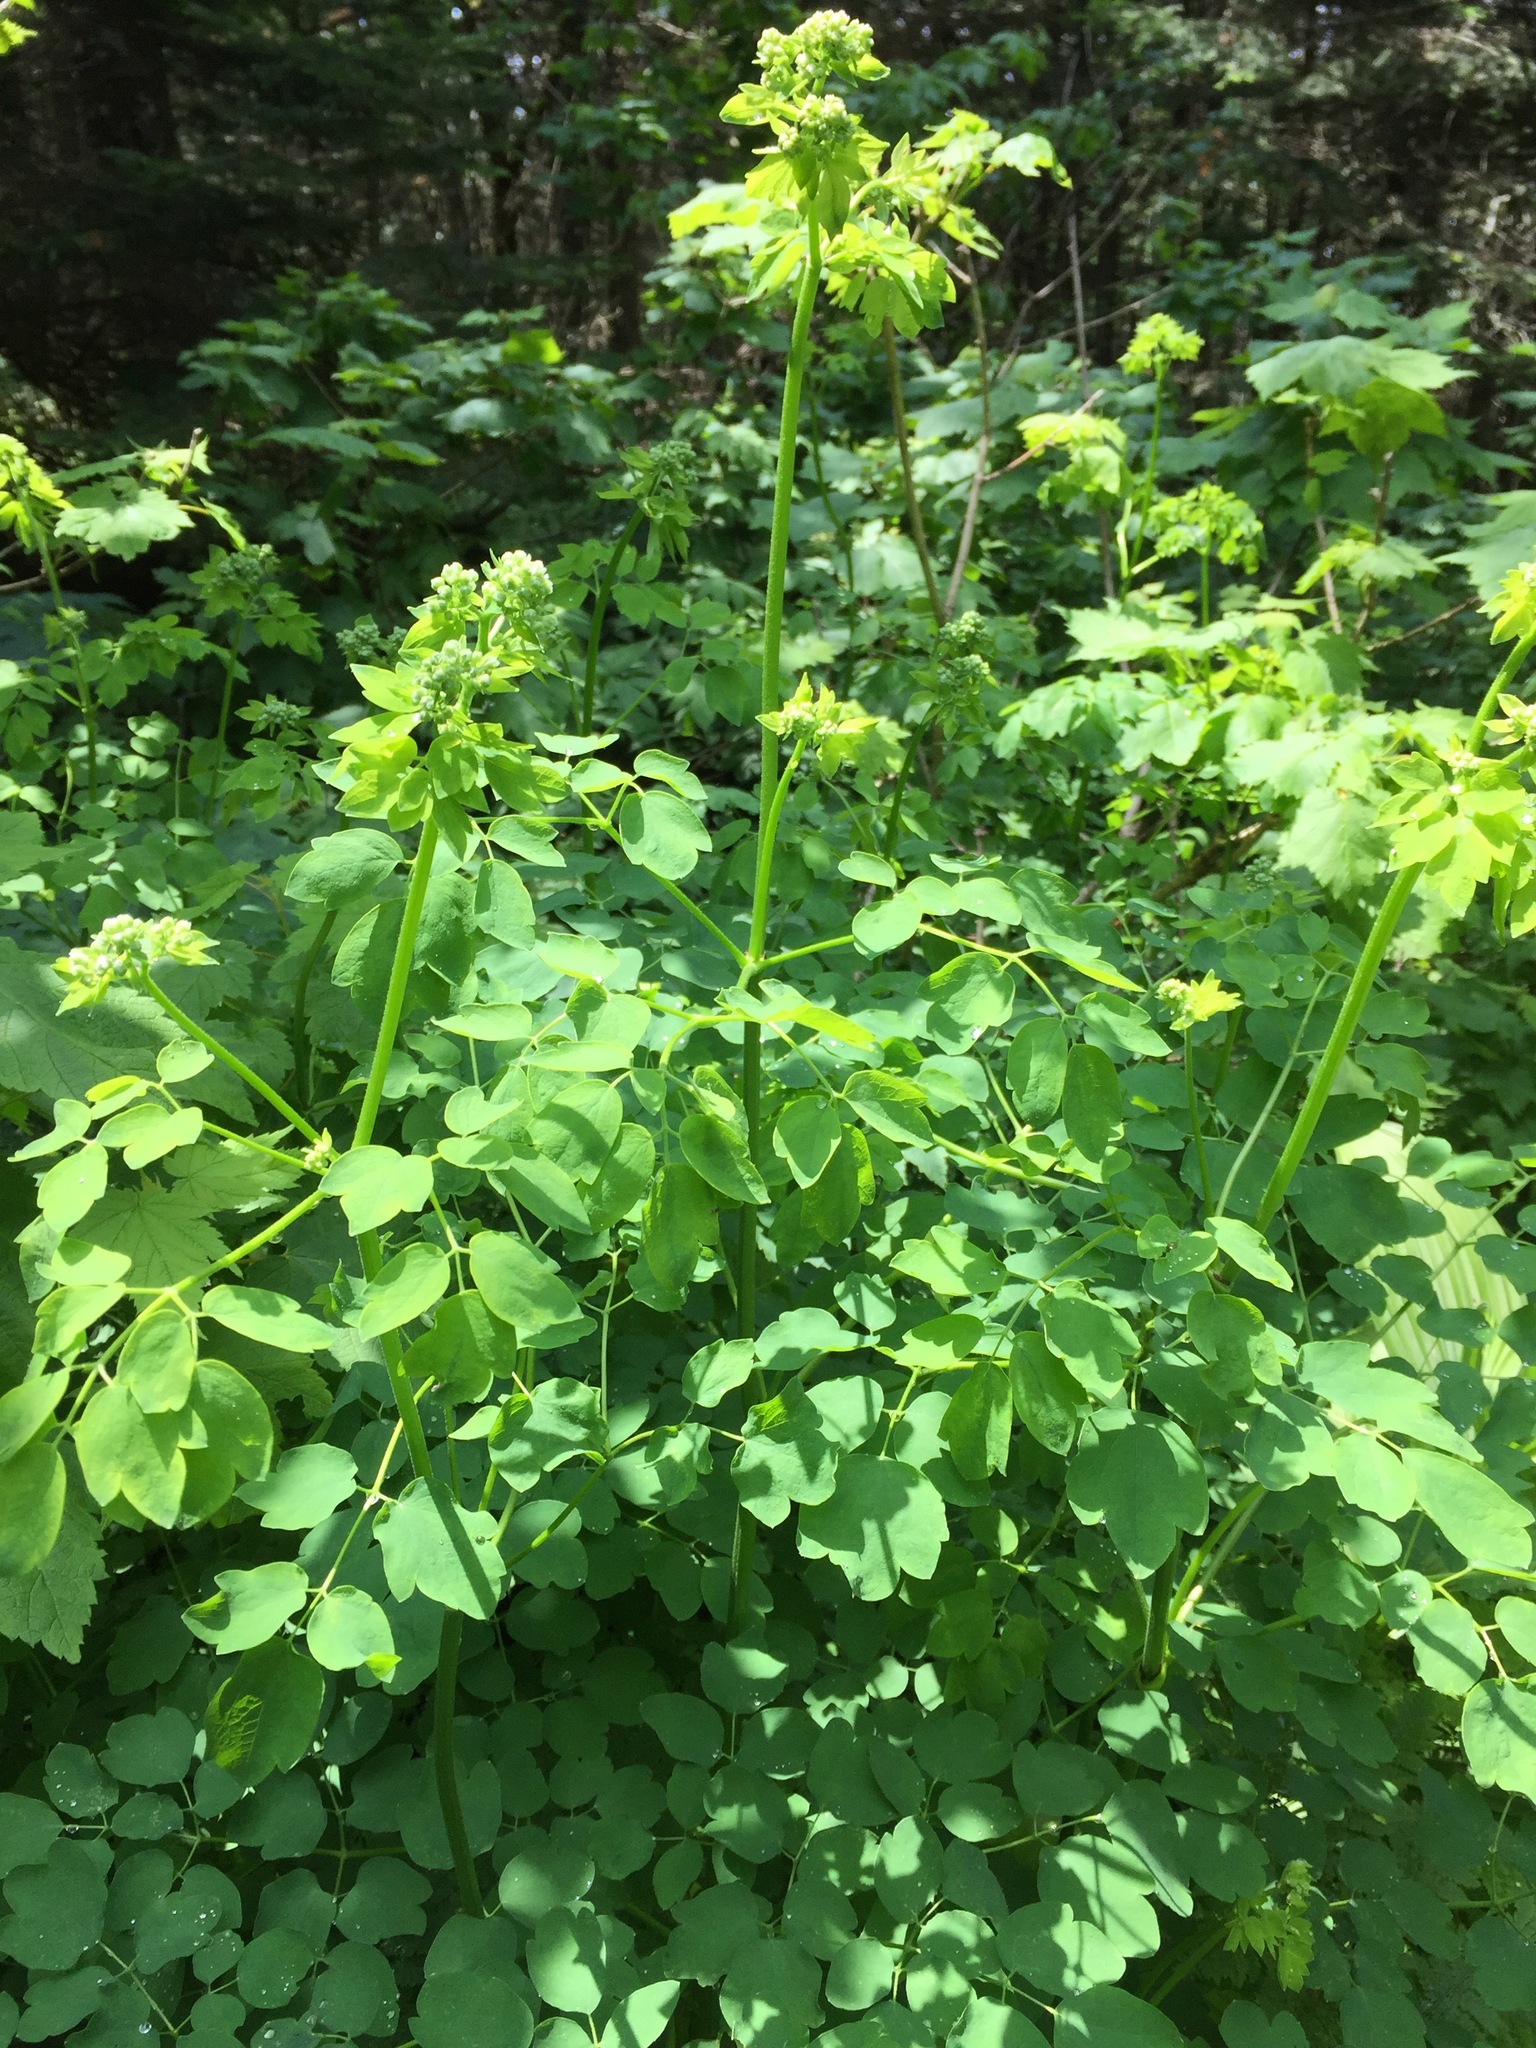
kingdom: Plantae
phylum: Tracheophyta
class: Magnoliopsida
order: Ranunculales
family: Ranunculaceae
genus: Thalictrum
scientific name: Thalictrum pubescens
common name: King-of-the-meadow
